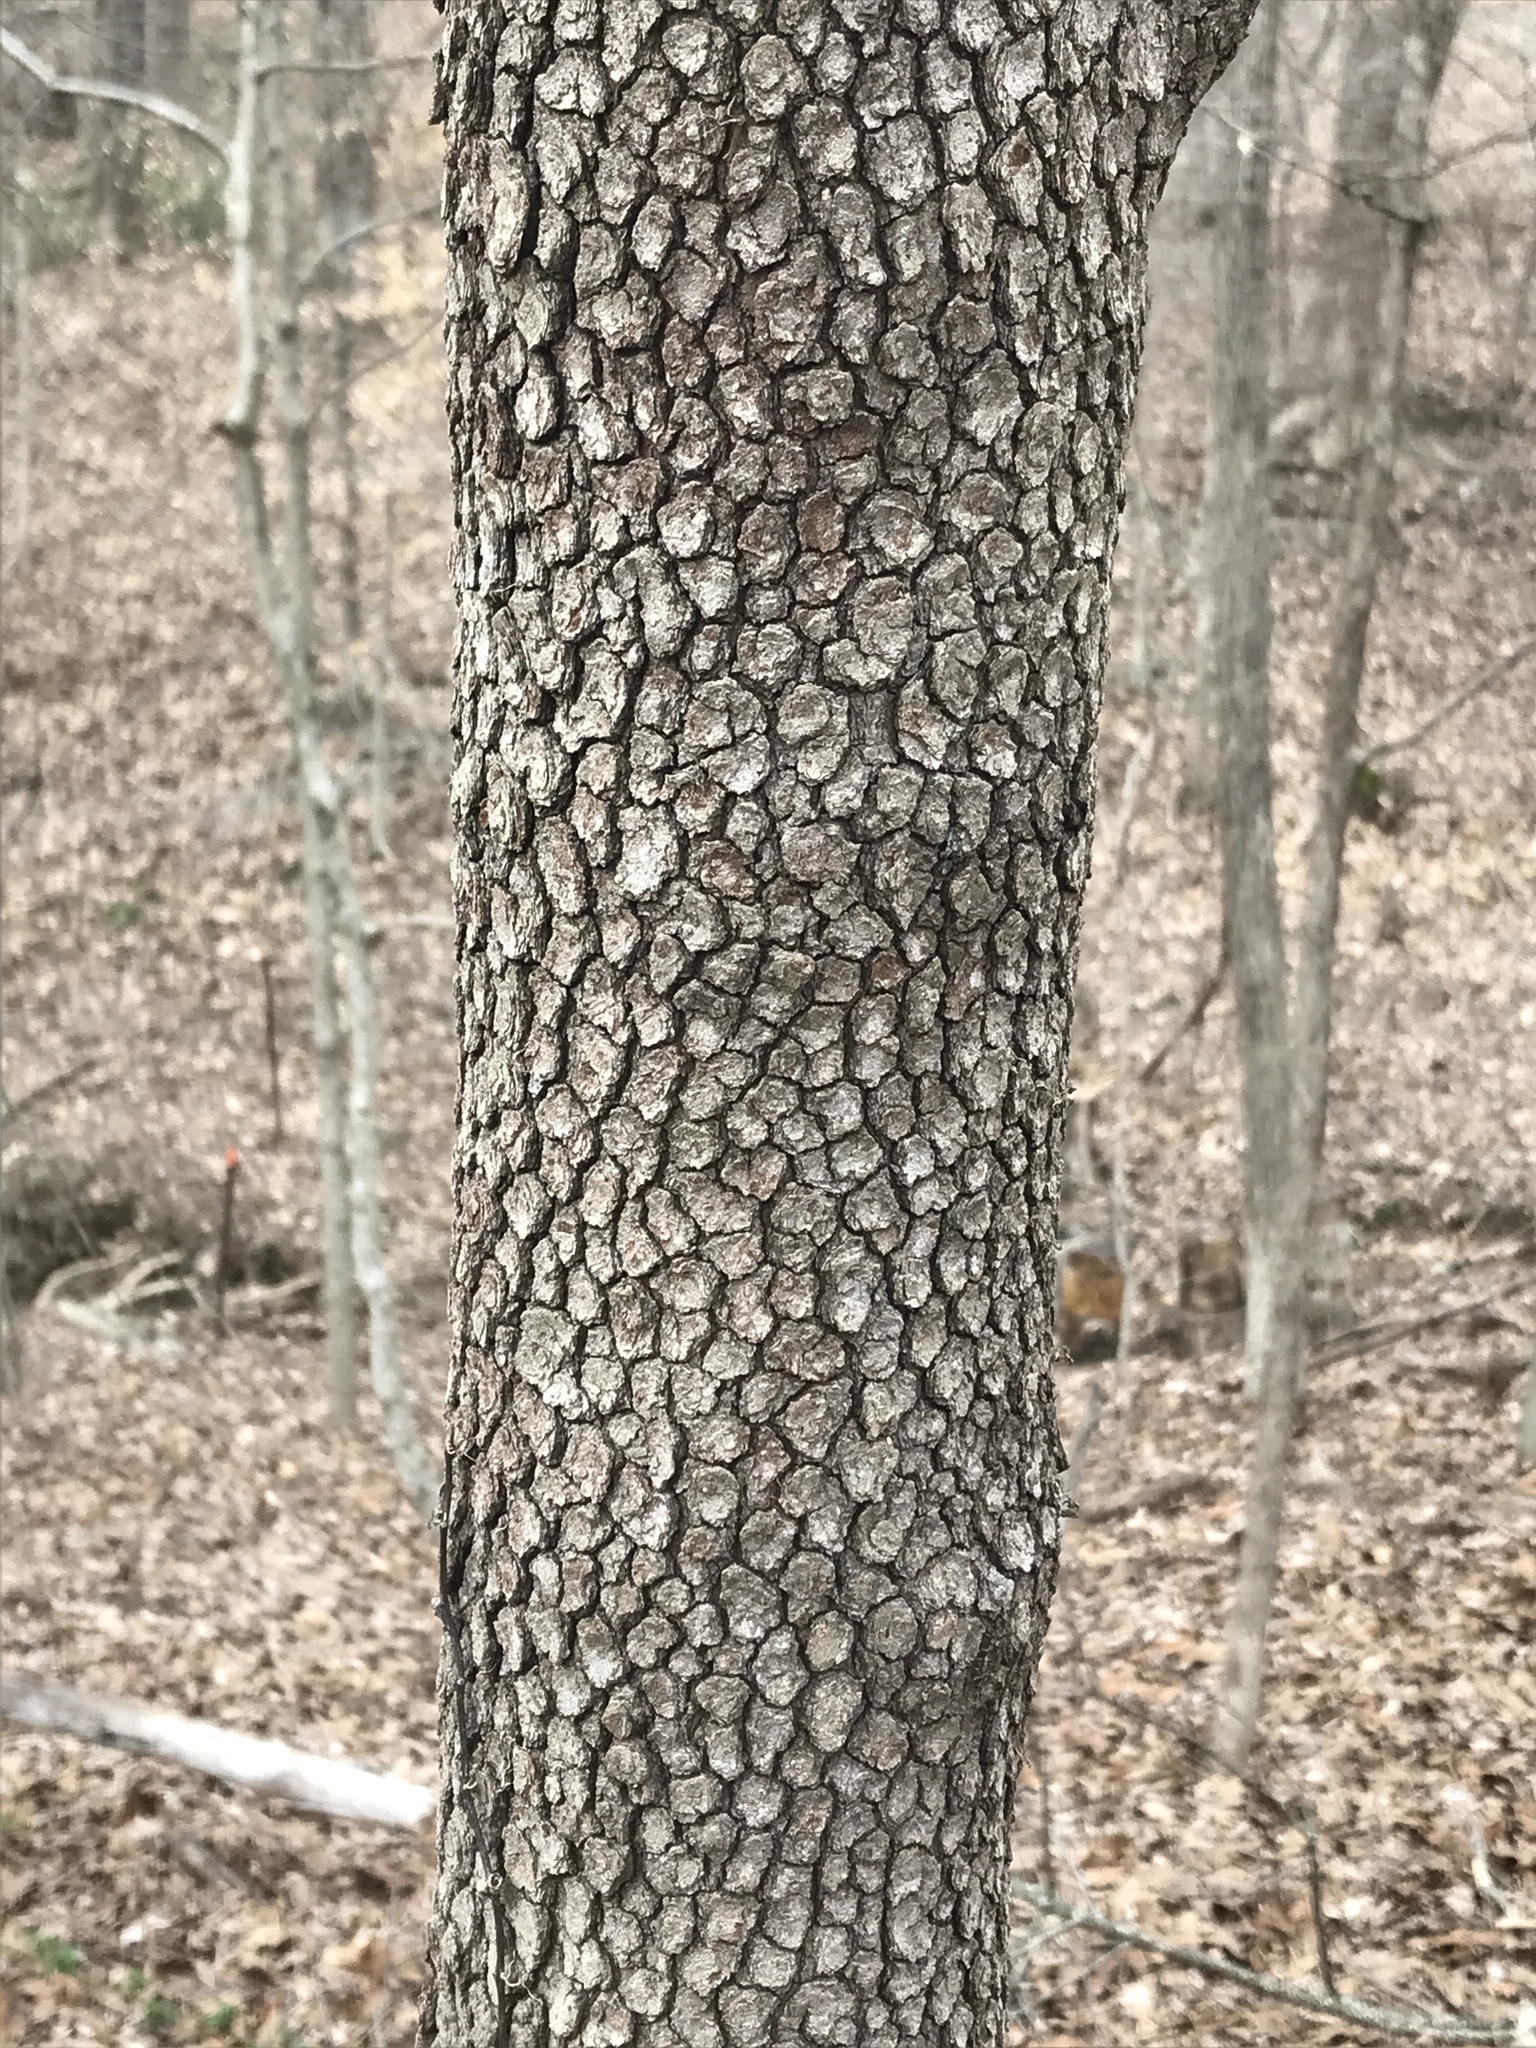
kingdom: Plantae
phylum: Tracheophyta
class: Magnoliopsida
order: Cornales
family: Cornaceae
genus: Cornus
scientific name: Cornus florida
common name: Flowering dogwood
